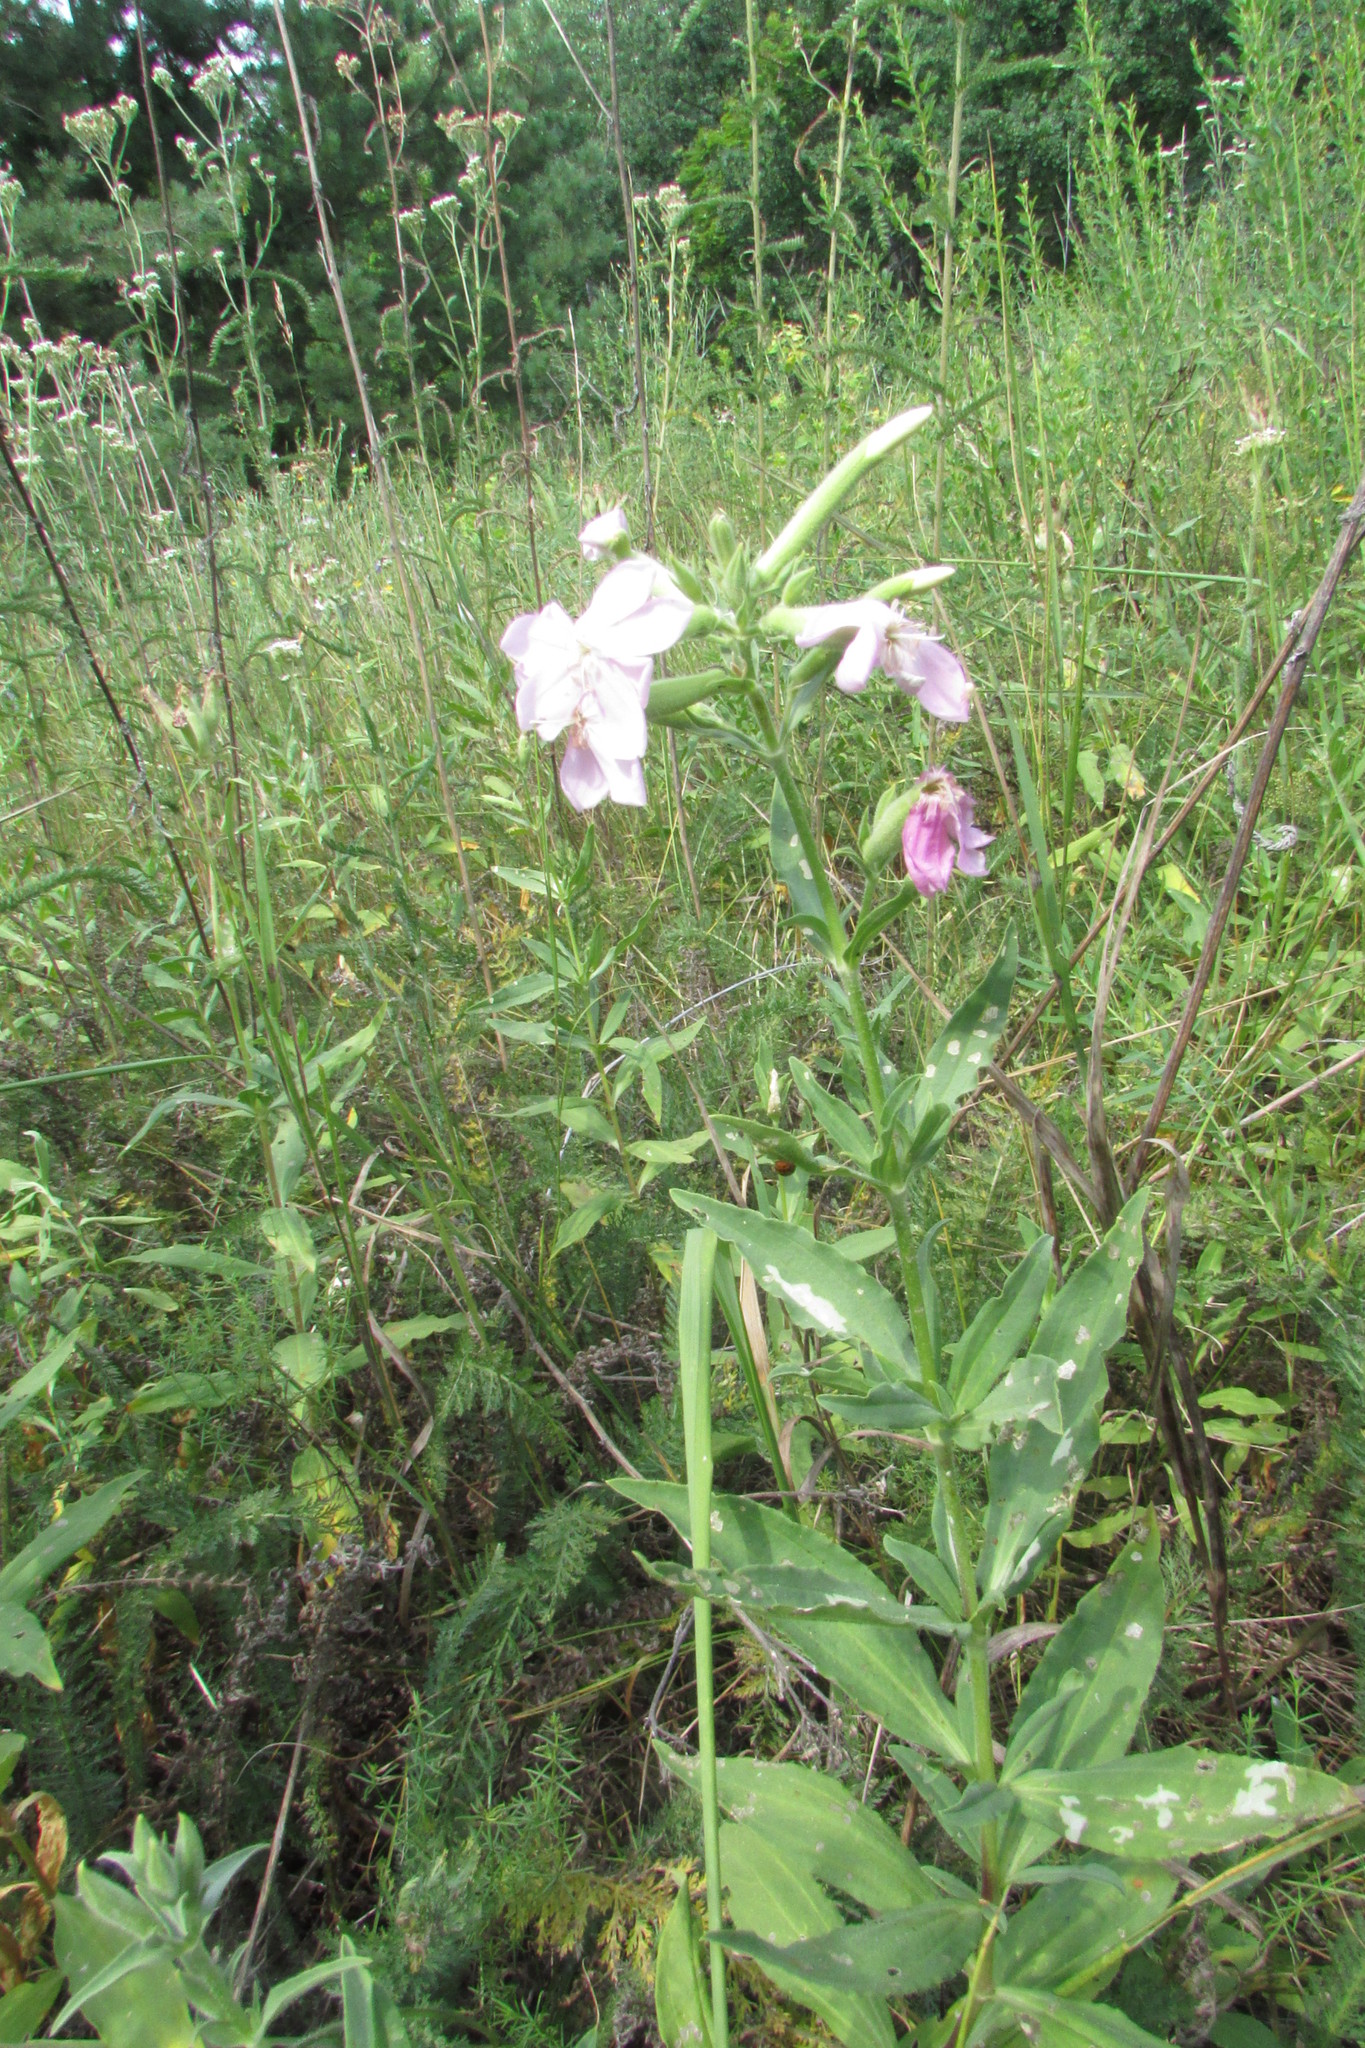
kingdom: Plantae
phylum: Tracheophyta
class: Magnoliopsida
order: Caryophyllales
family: Caryophyllaceae
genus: Saponaria
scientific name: Saponaria officinalis
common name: Soapwort
